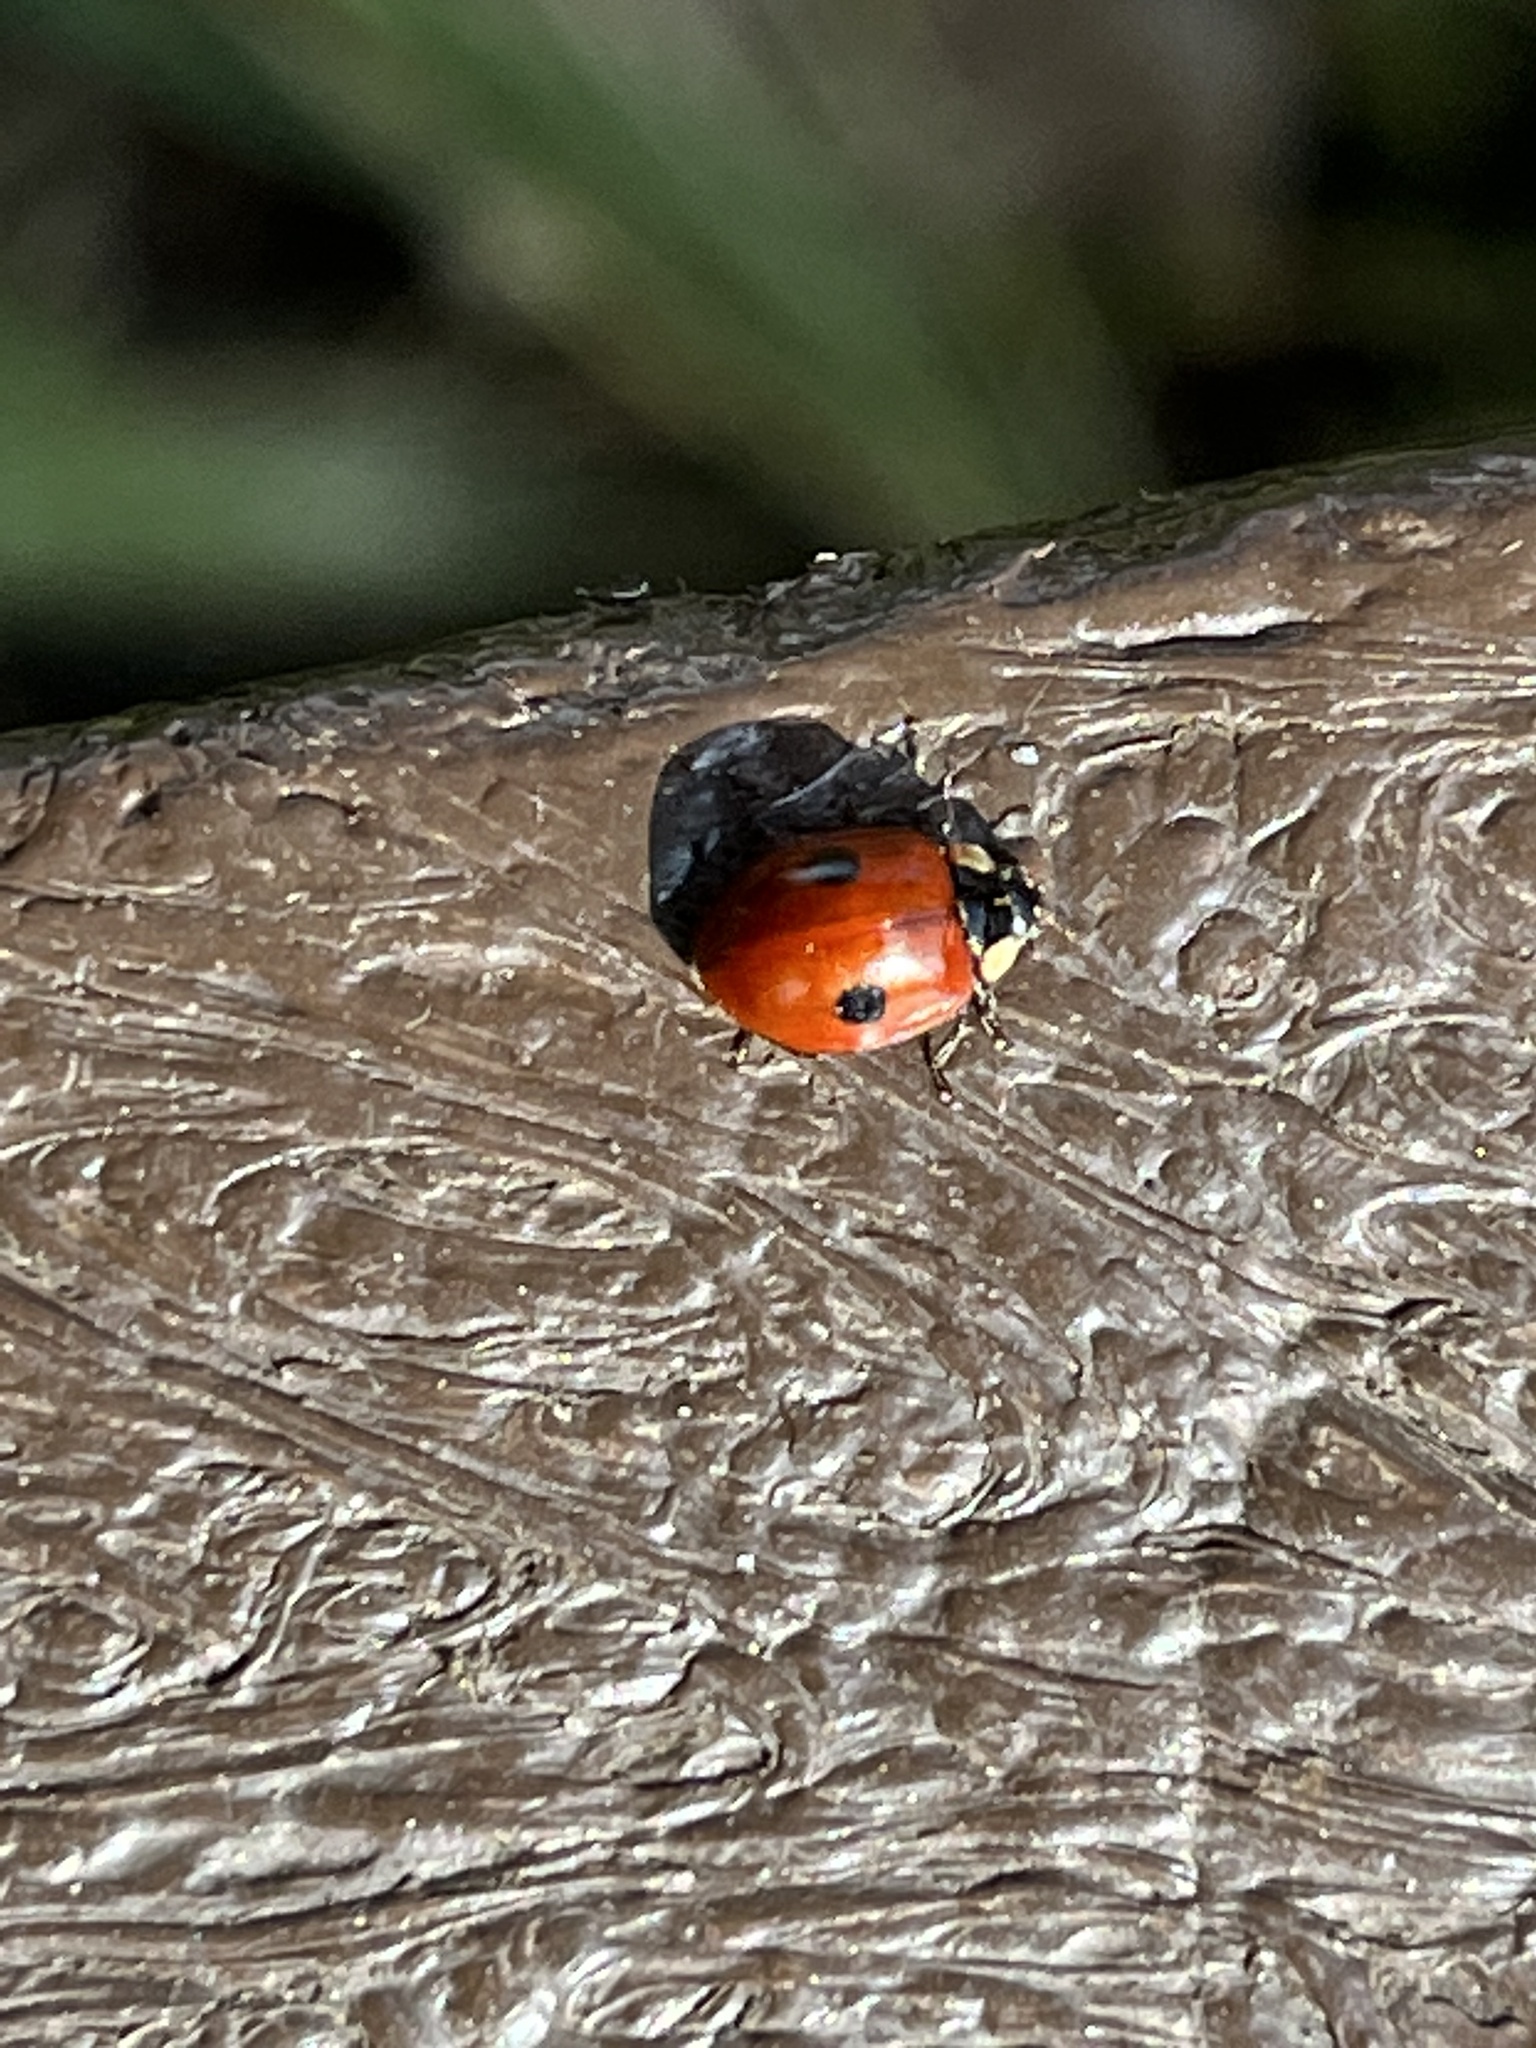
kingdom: Animalia
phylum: Arthropoda
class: Insecta
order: Coleoptera
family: Coccinellidae
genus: Adalia
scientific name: Adalia bipunctata
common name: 2-spot ladybird
